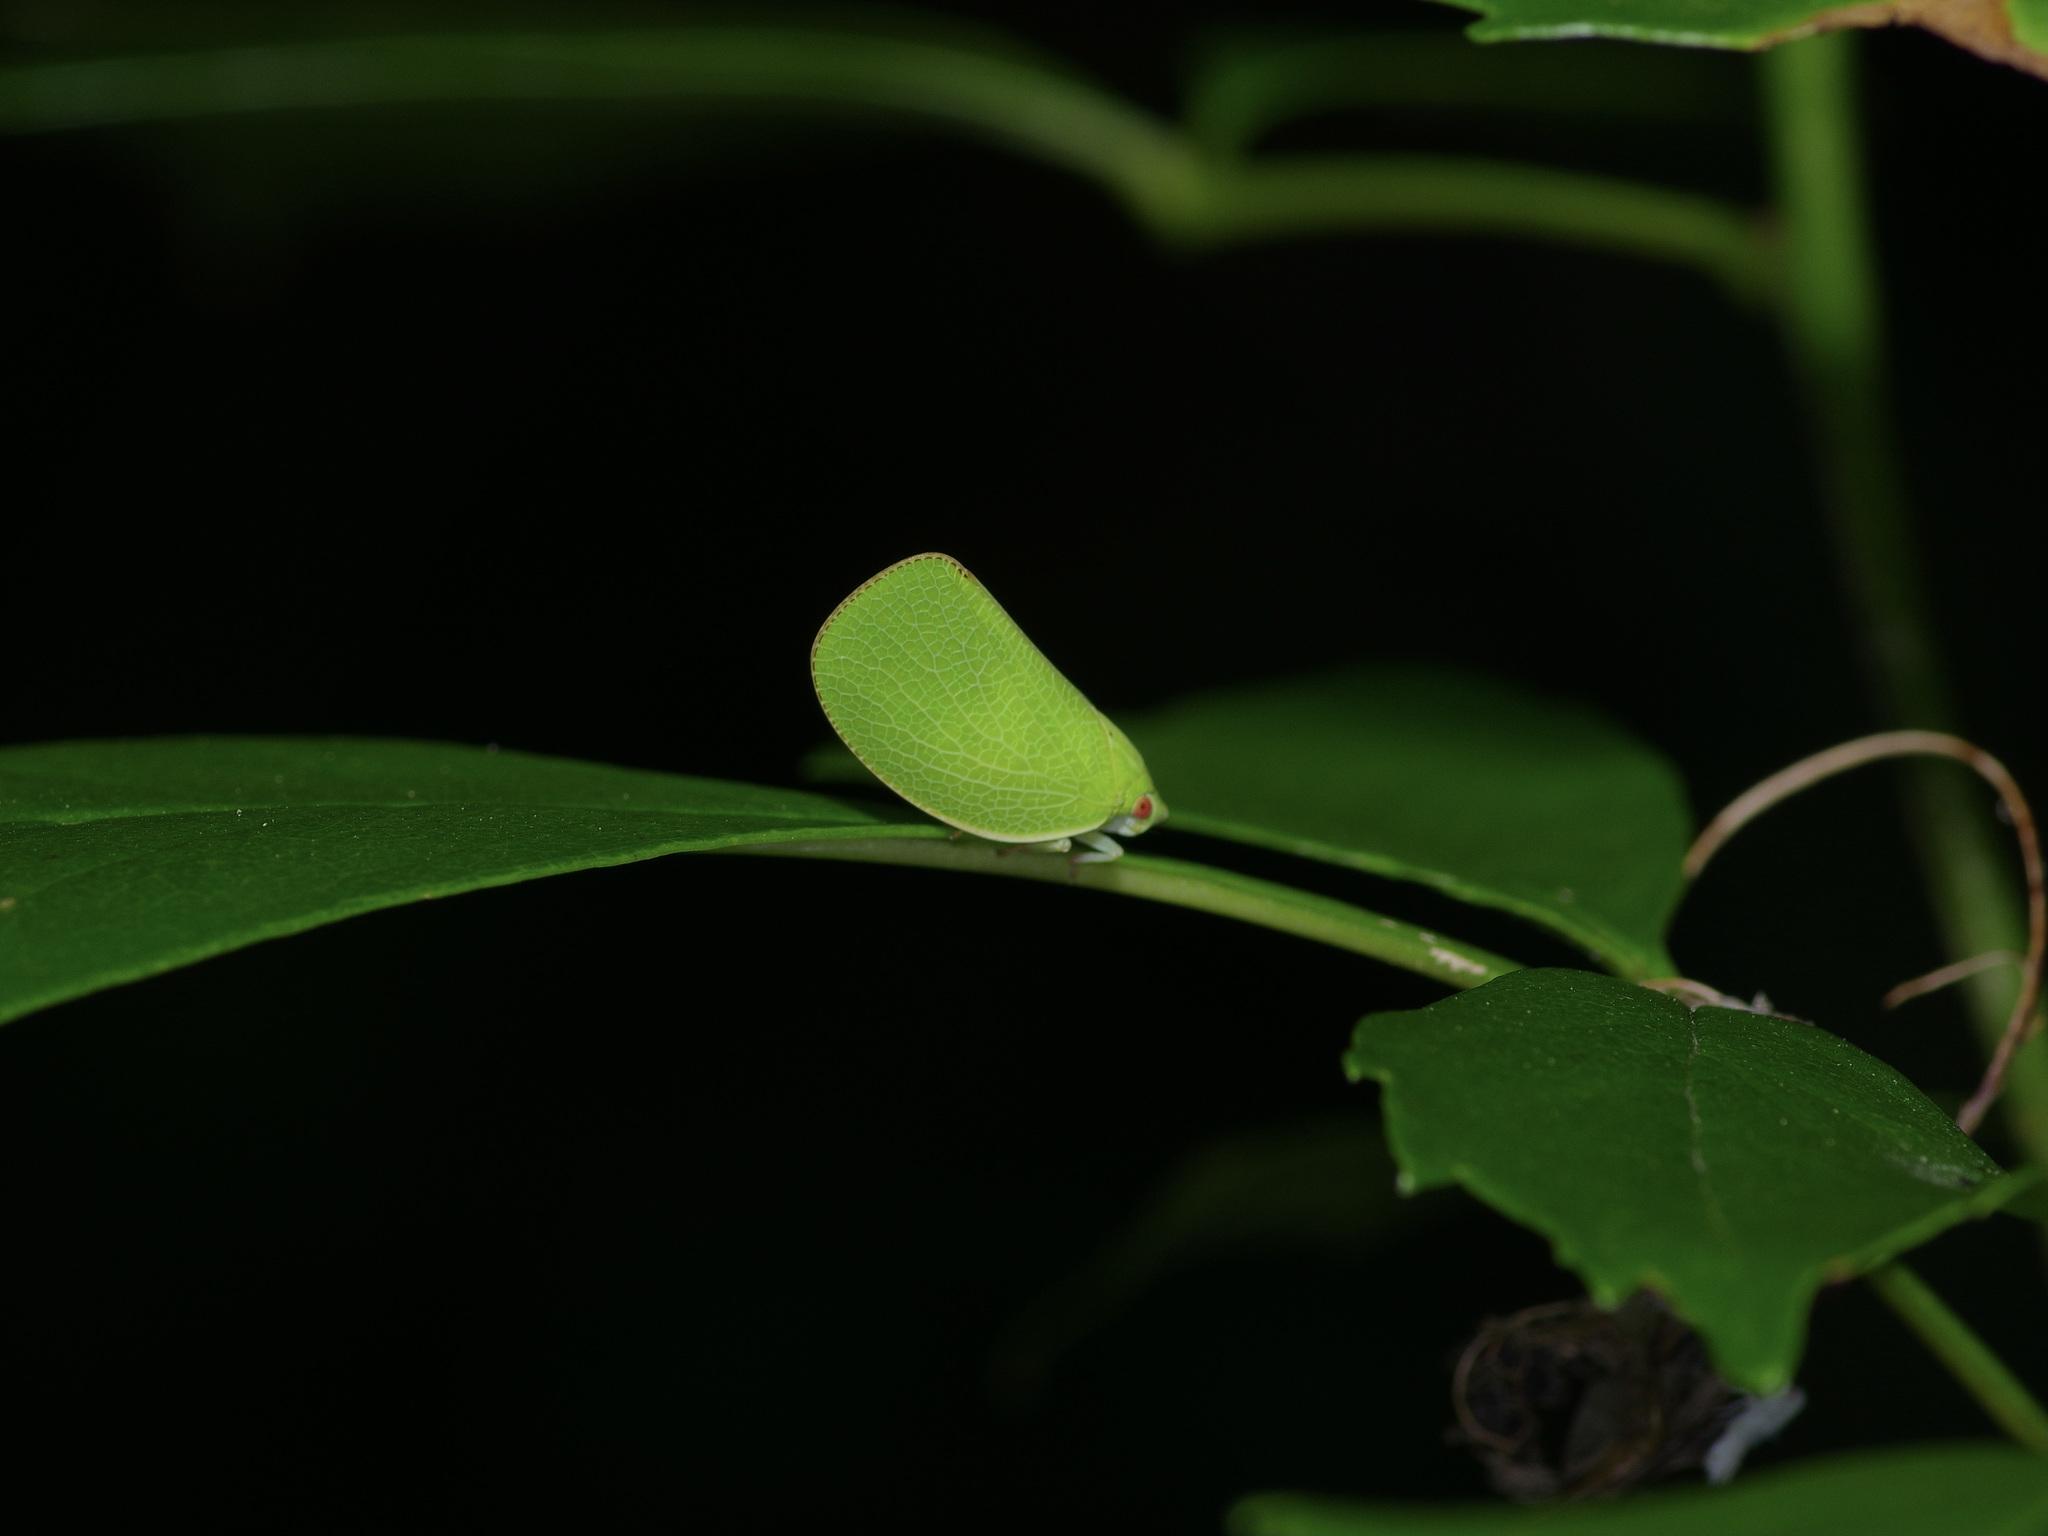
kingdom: Animalia
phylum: Arthropoda
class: Insecta
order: Hemiptera
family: Acanaloniidae
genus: Acanalonia
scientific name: Acanalonia conica
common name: Green cone-headed planthopper
